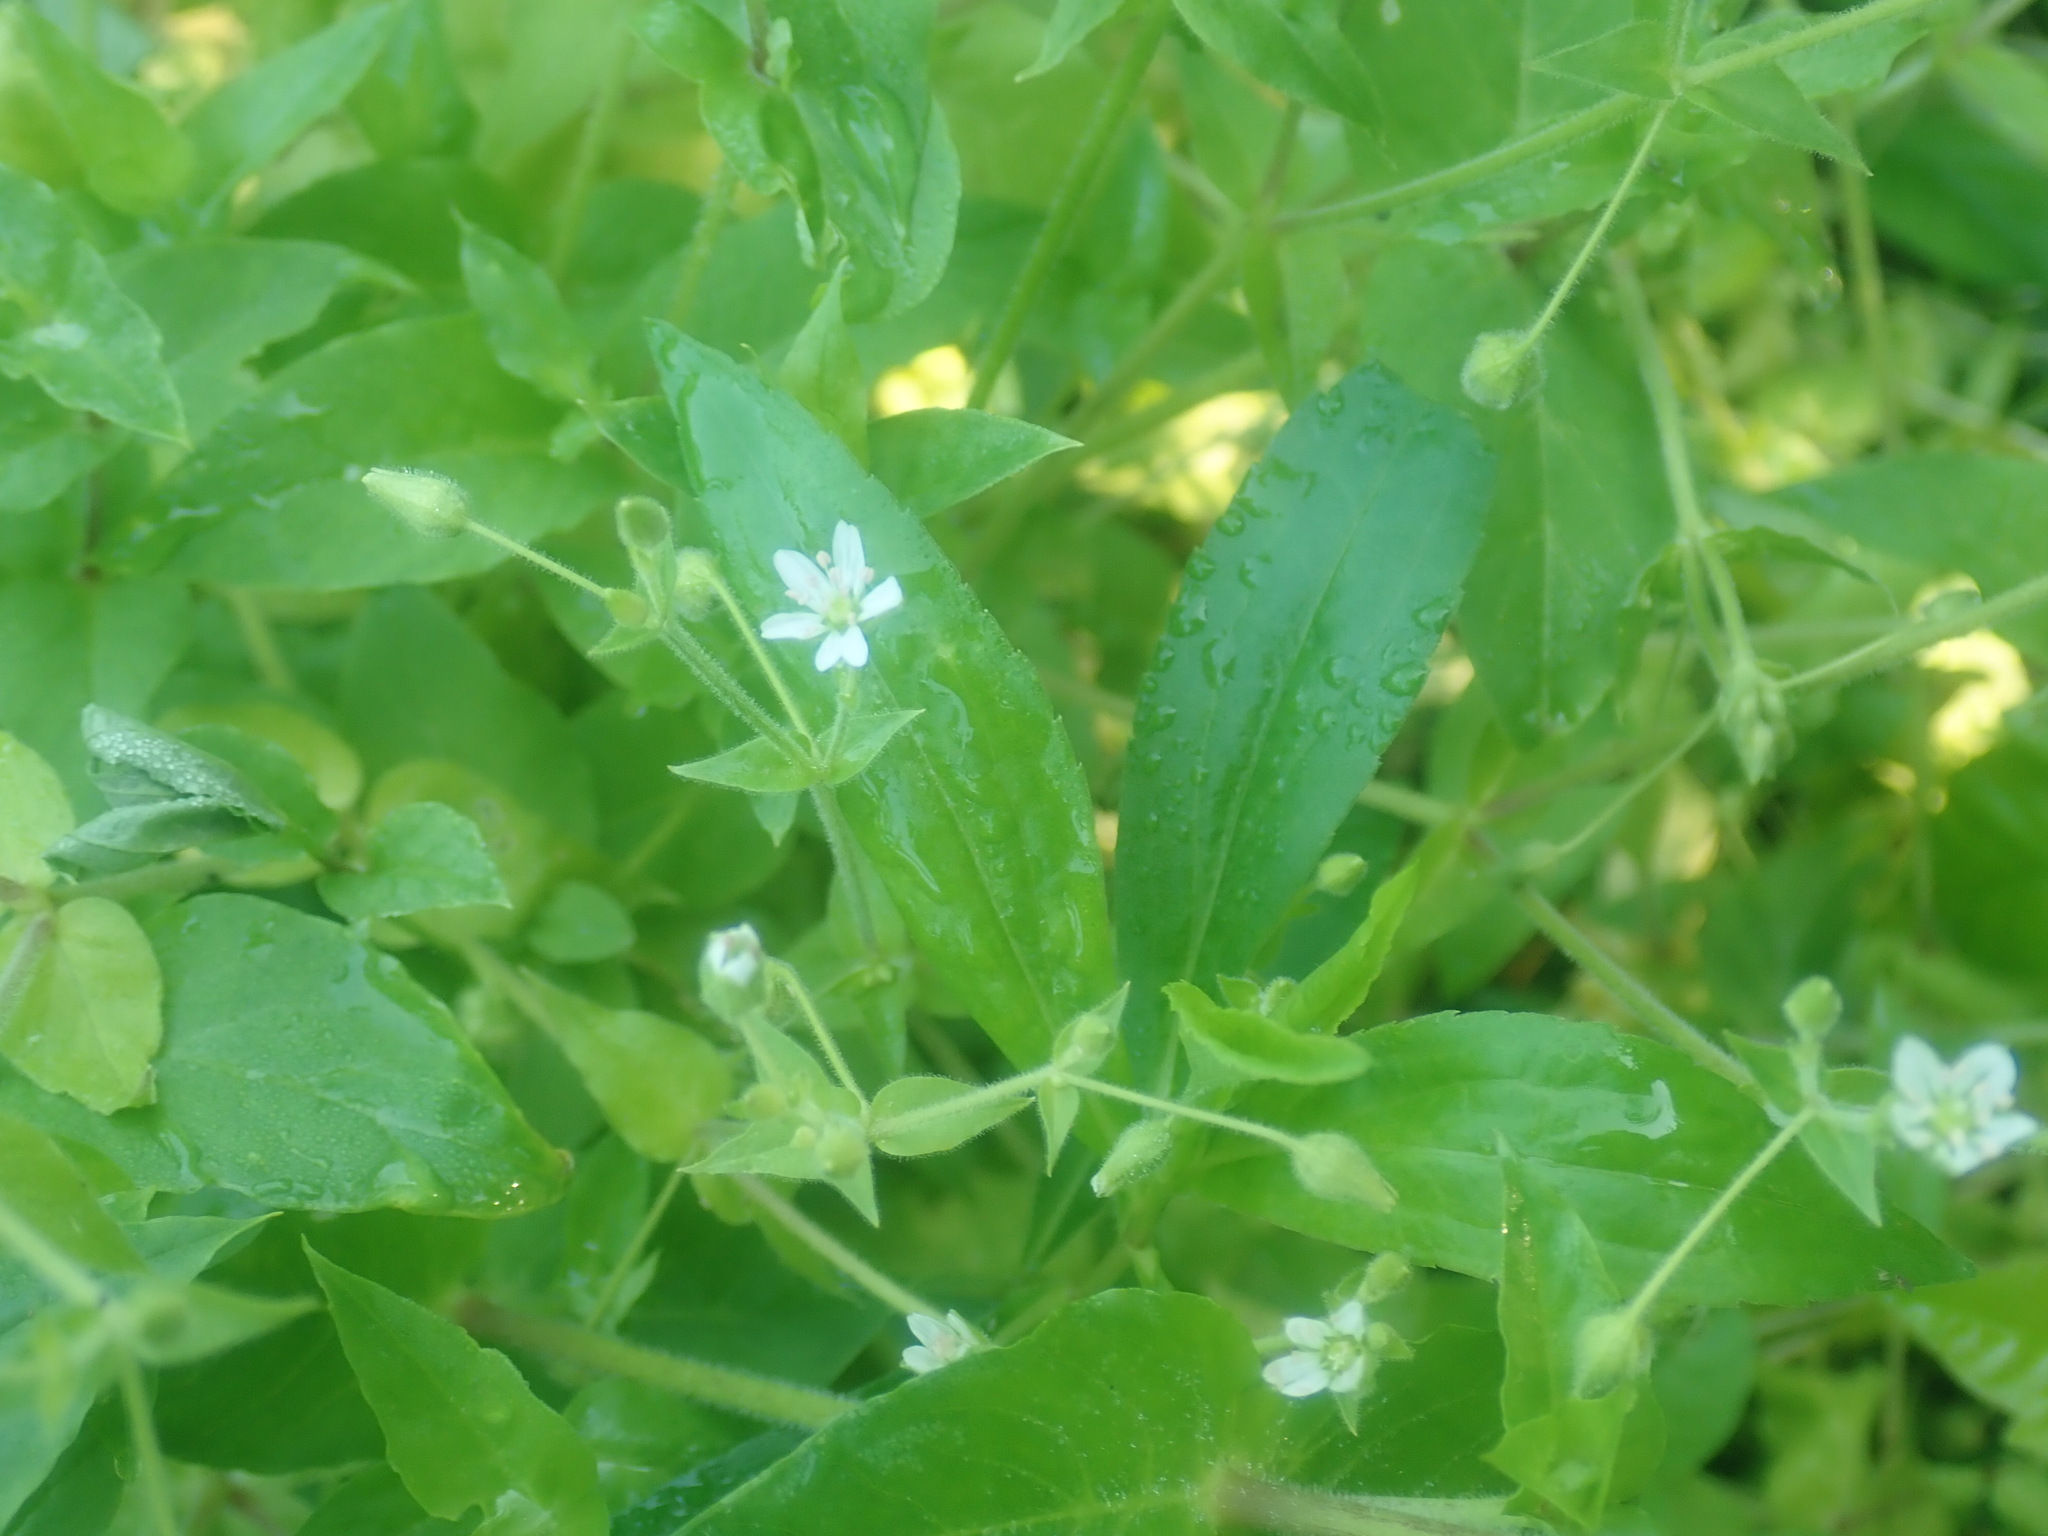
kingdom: Plantae
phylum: Tracheophyta
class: Magnoliopsida
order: Caryophyllales
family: Caryophyllaceae
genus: Stellaria
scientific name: Stellaria aquatica
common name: Water chickweed
